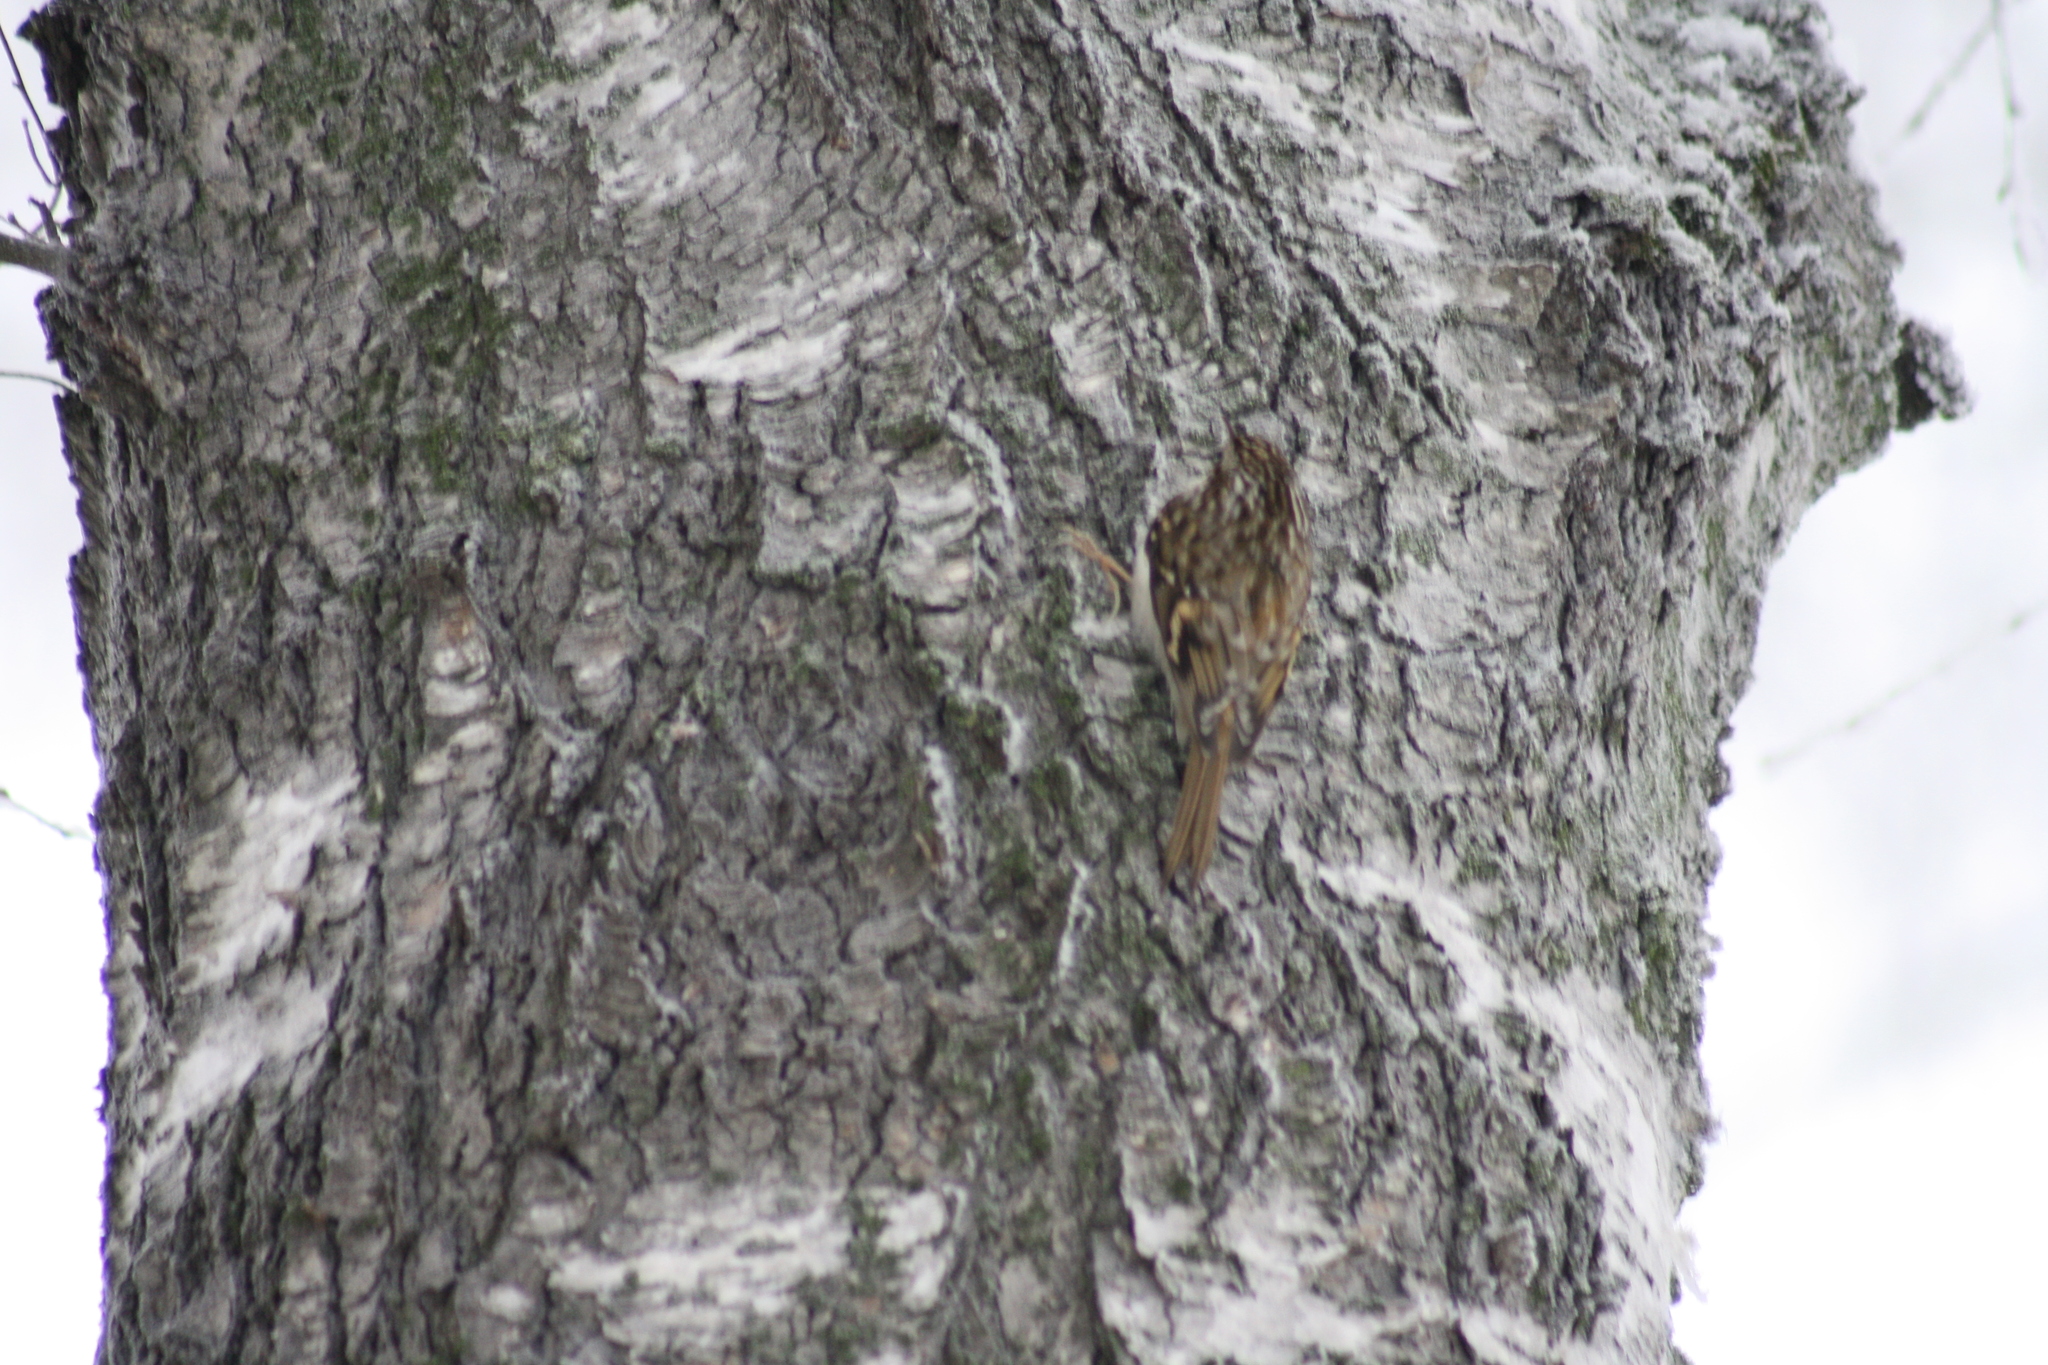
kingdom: Animalia
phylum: Chordata
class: Aves
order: Passeriformes
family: Certhiidae
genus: Certhia
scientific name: Certhia familiaris
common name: Eurasian treecreeper
